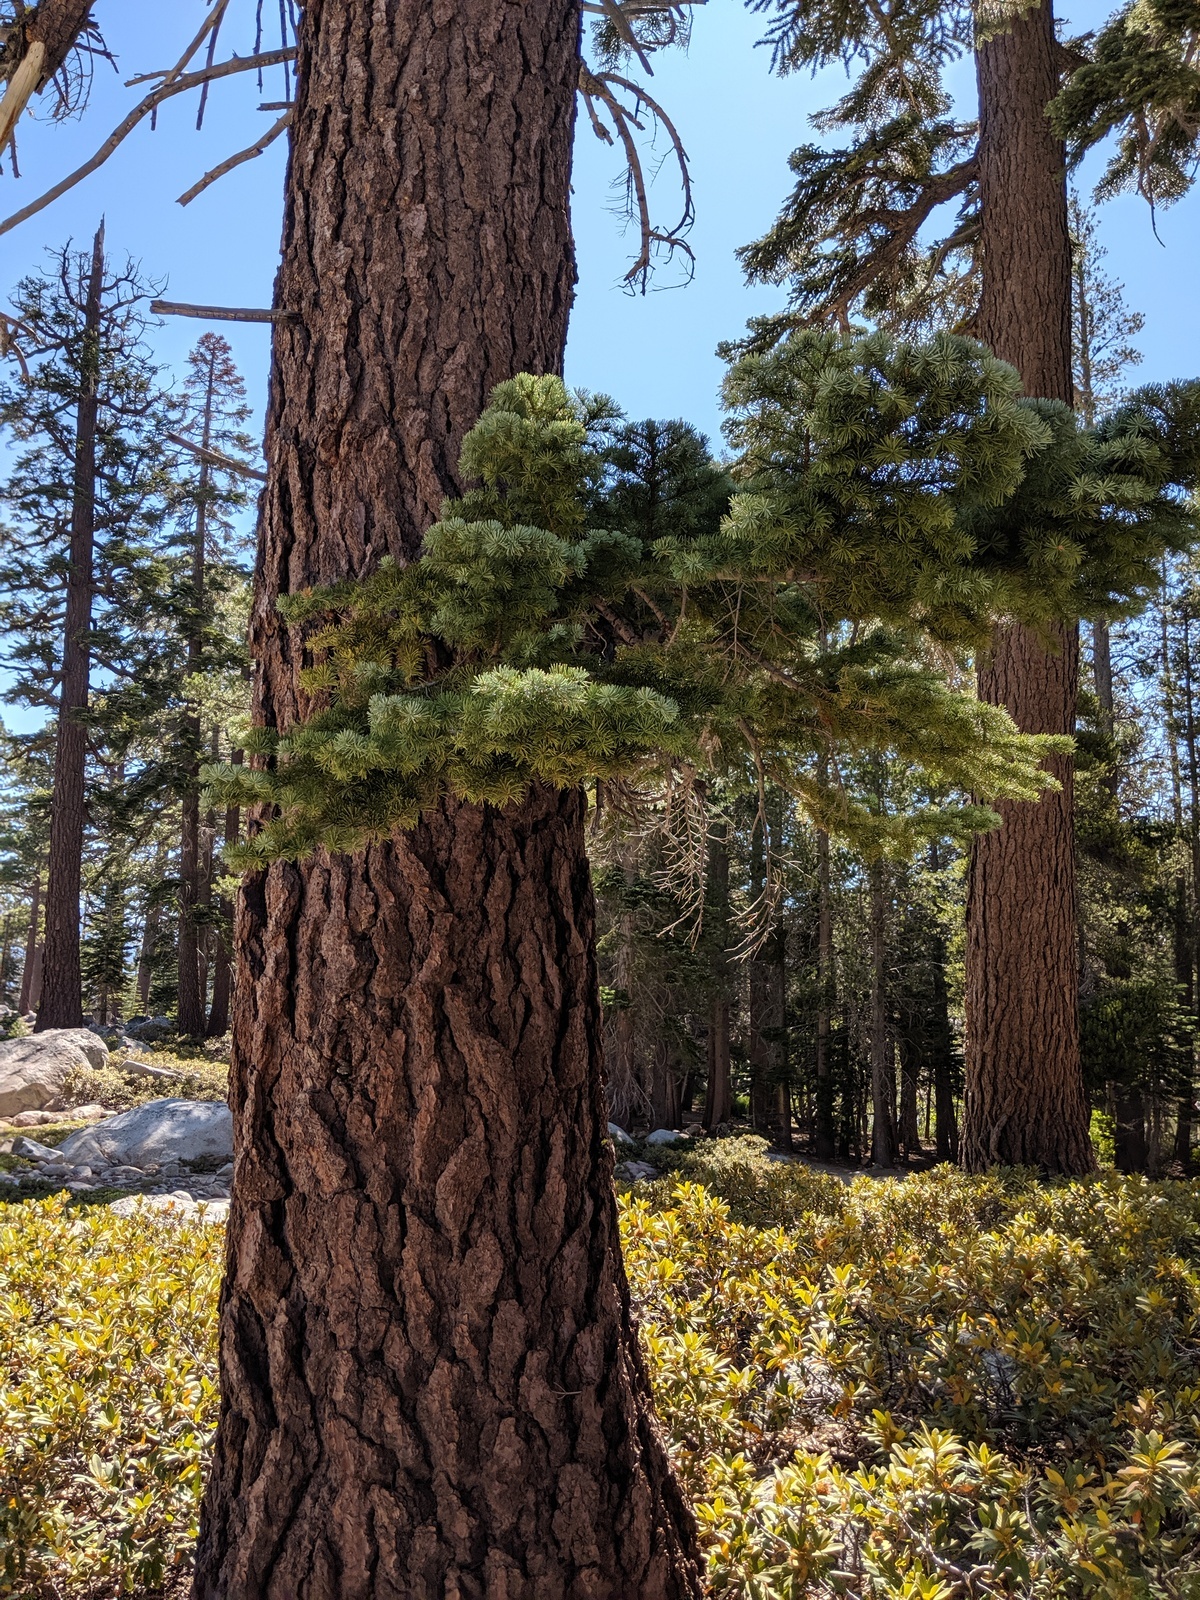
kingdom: Plantae
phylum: Tracheophyta
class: Pinopsida
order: Pinales
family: Pinaceae
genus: Abies
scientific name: Abies magnifica bis
